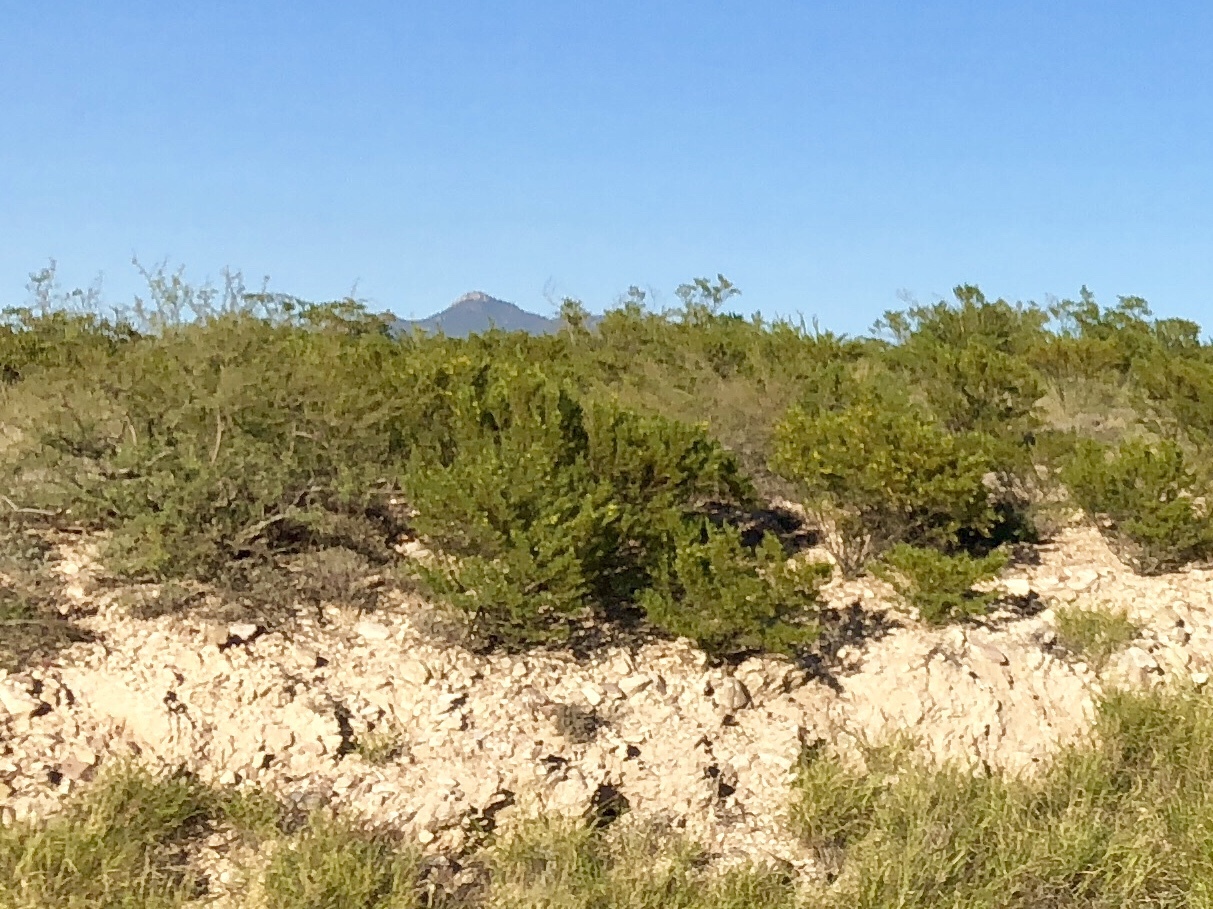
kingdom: Plantae
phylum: Tracheophyta
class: Magnoliopsida
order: Zygophyllales
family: Zygophyllaceae
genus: Larrea
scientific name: Larrea tridentata
